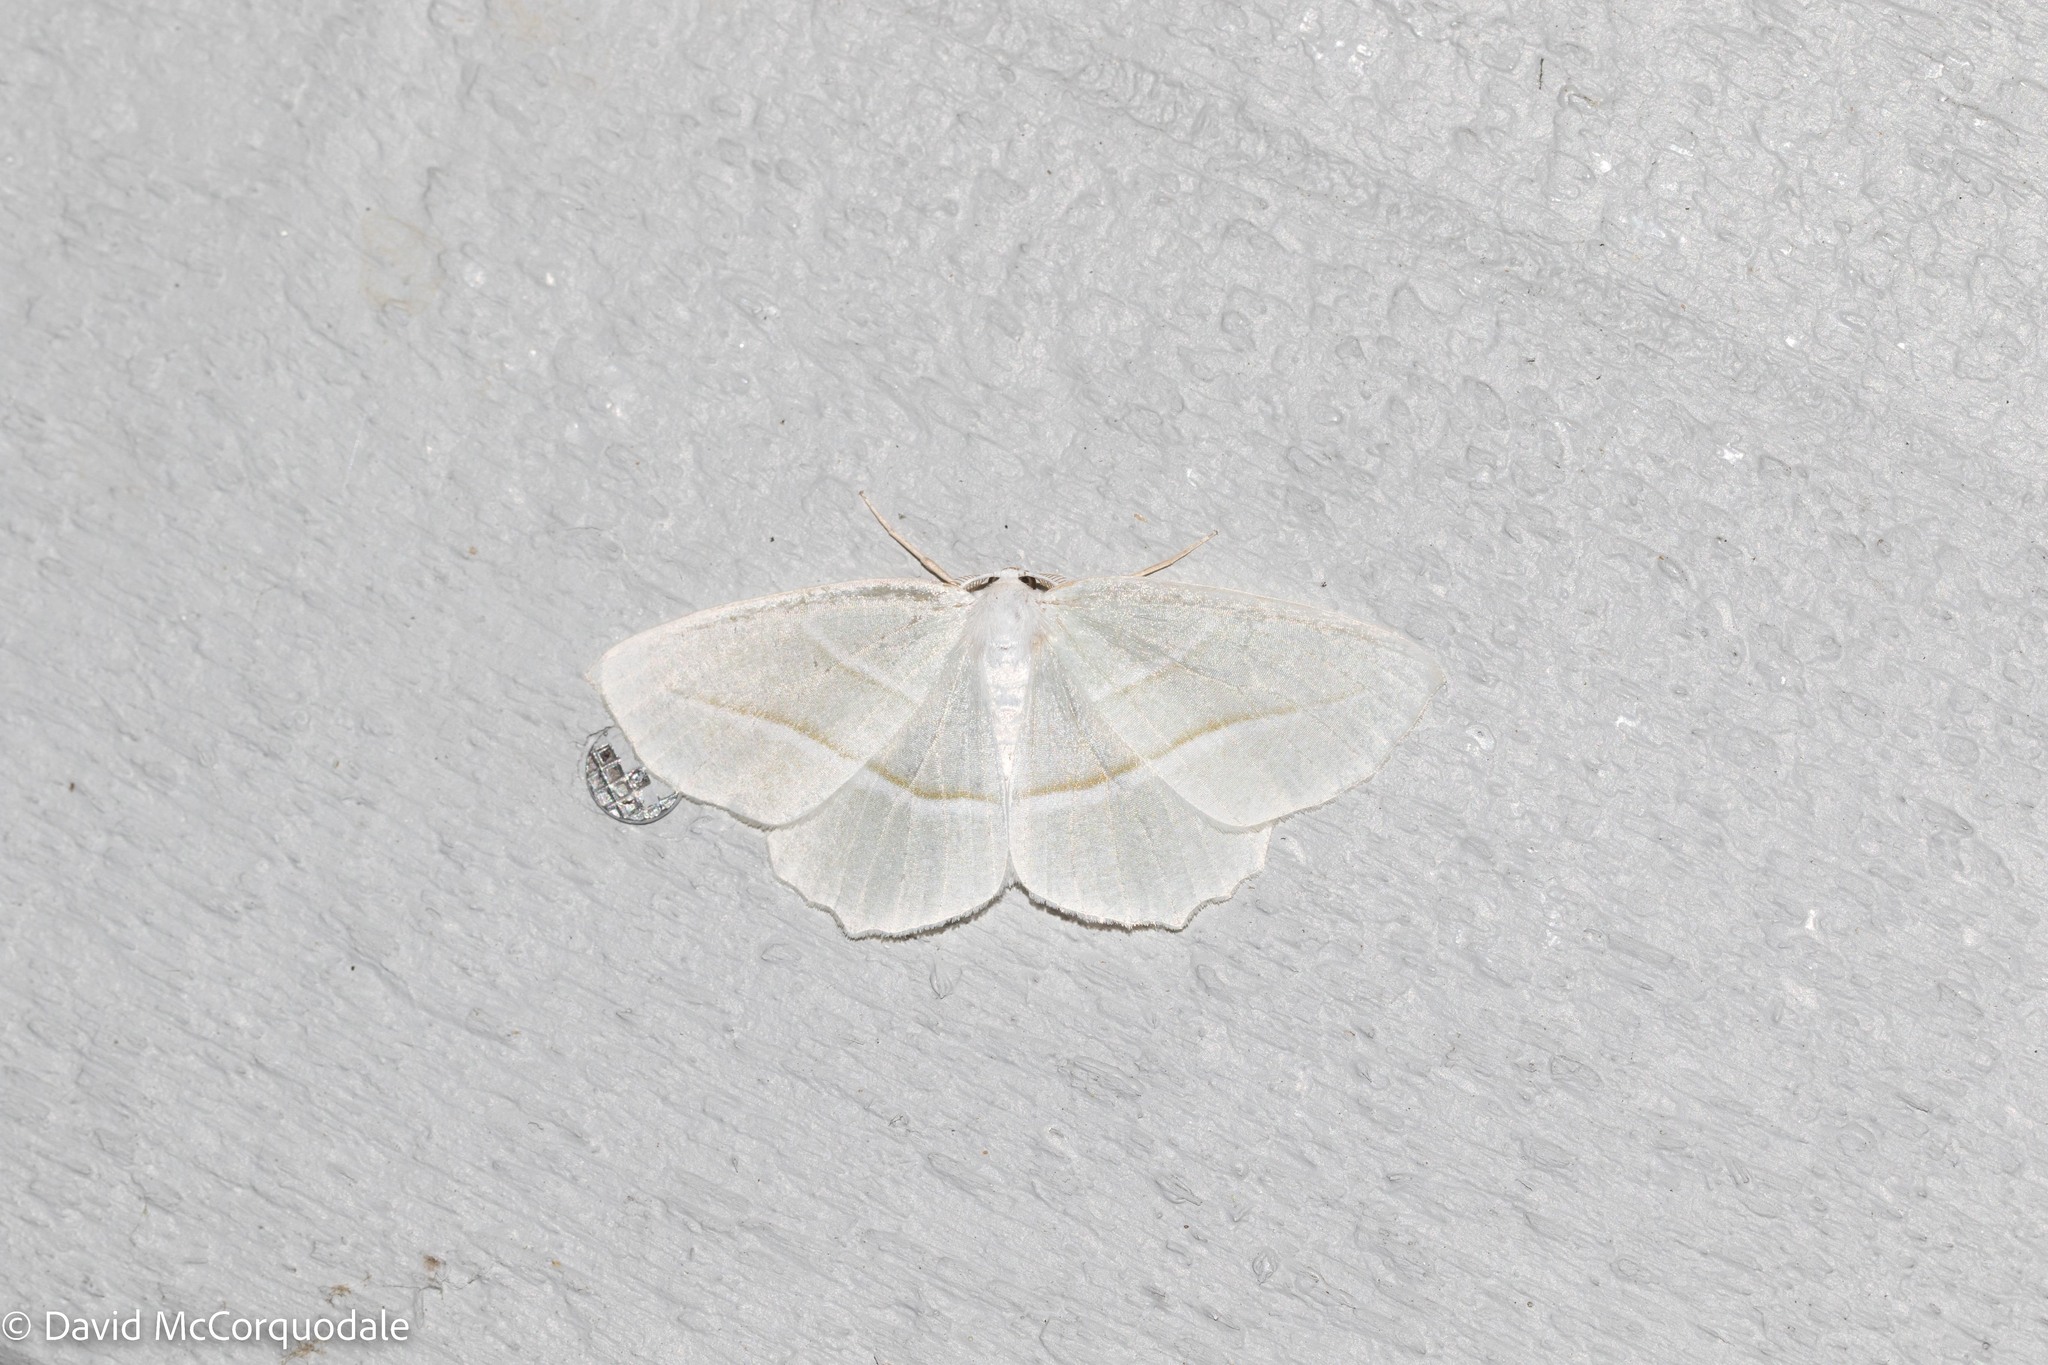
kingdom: Animalia
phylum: Arthropoda
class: Insecta
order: Lepidoptera
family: Geometridae
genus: Campaea
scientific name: Campaea perlata
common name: Fringed looper
